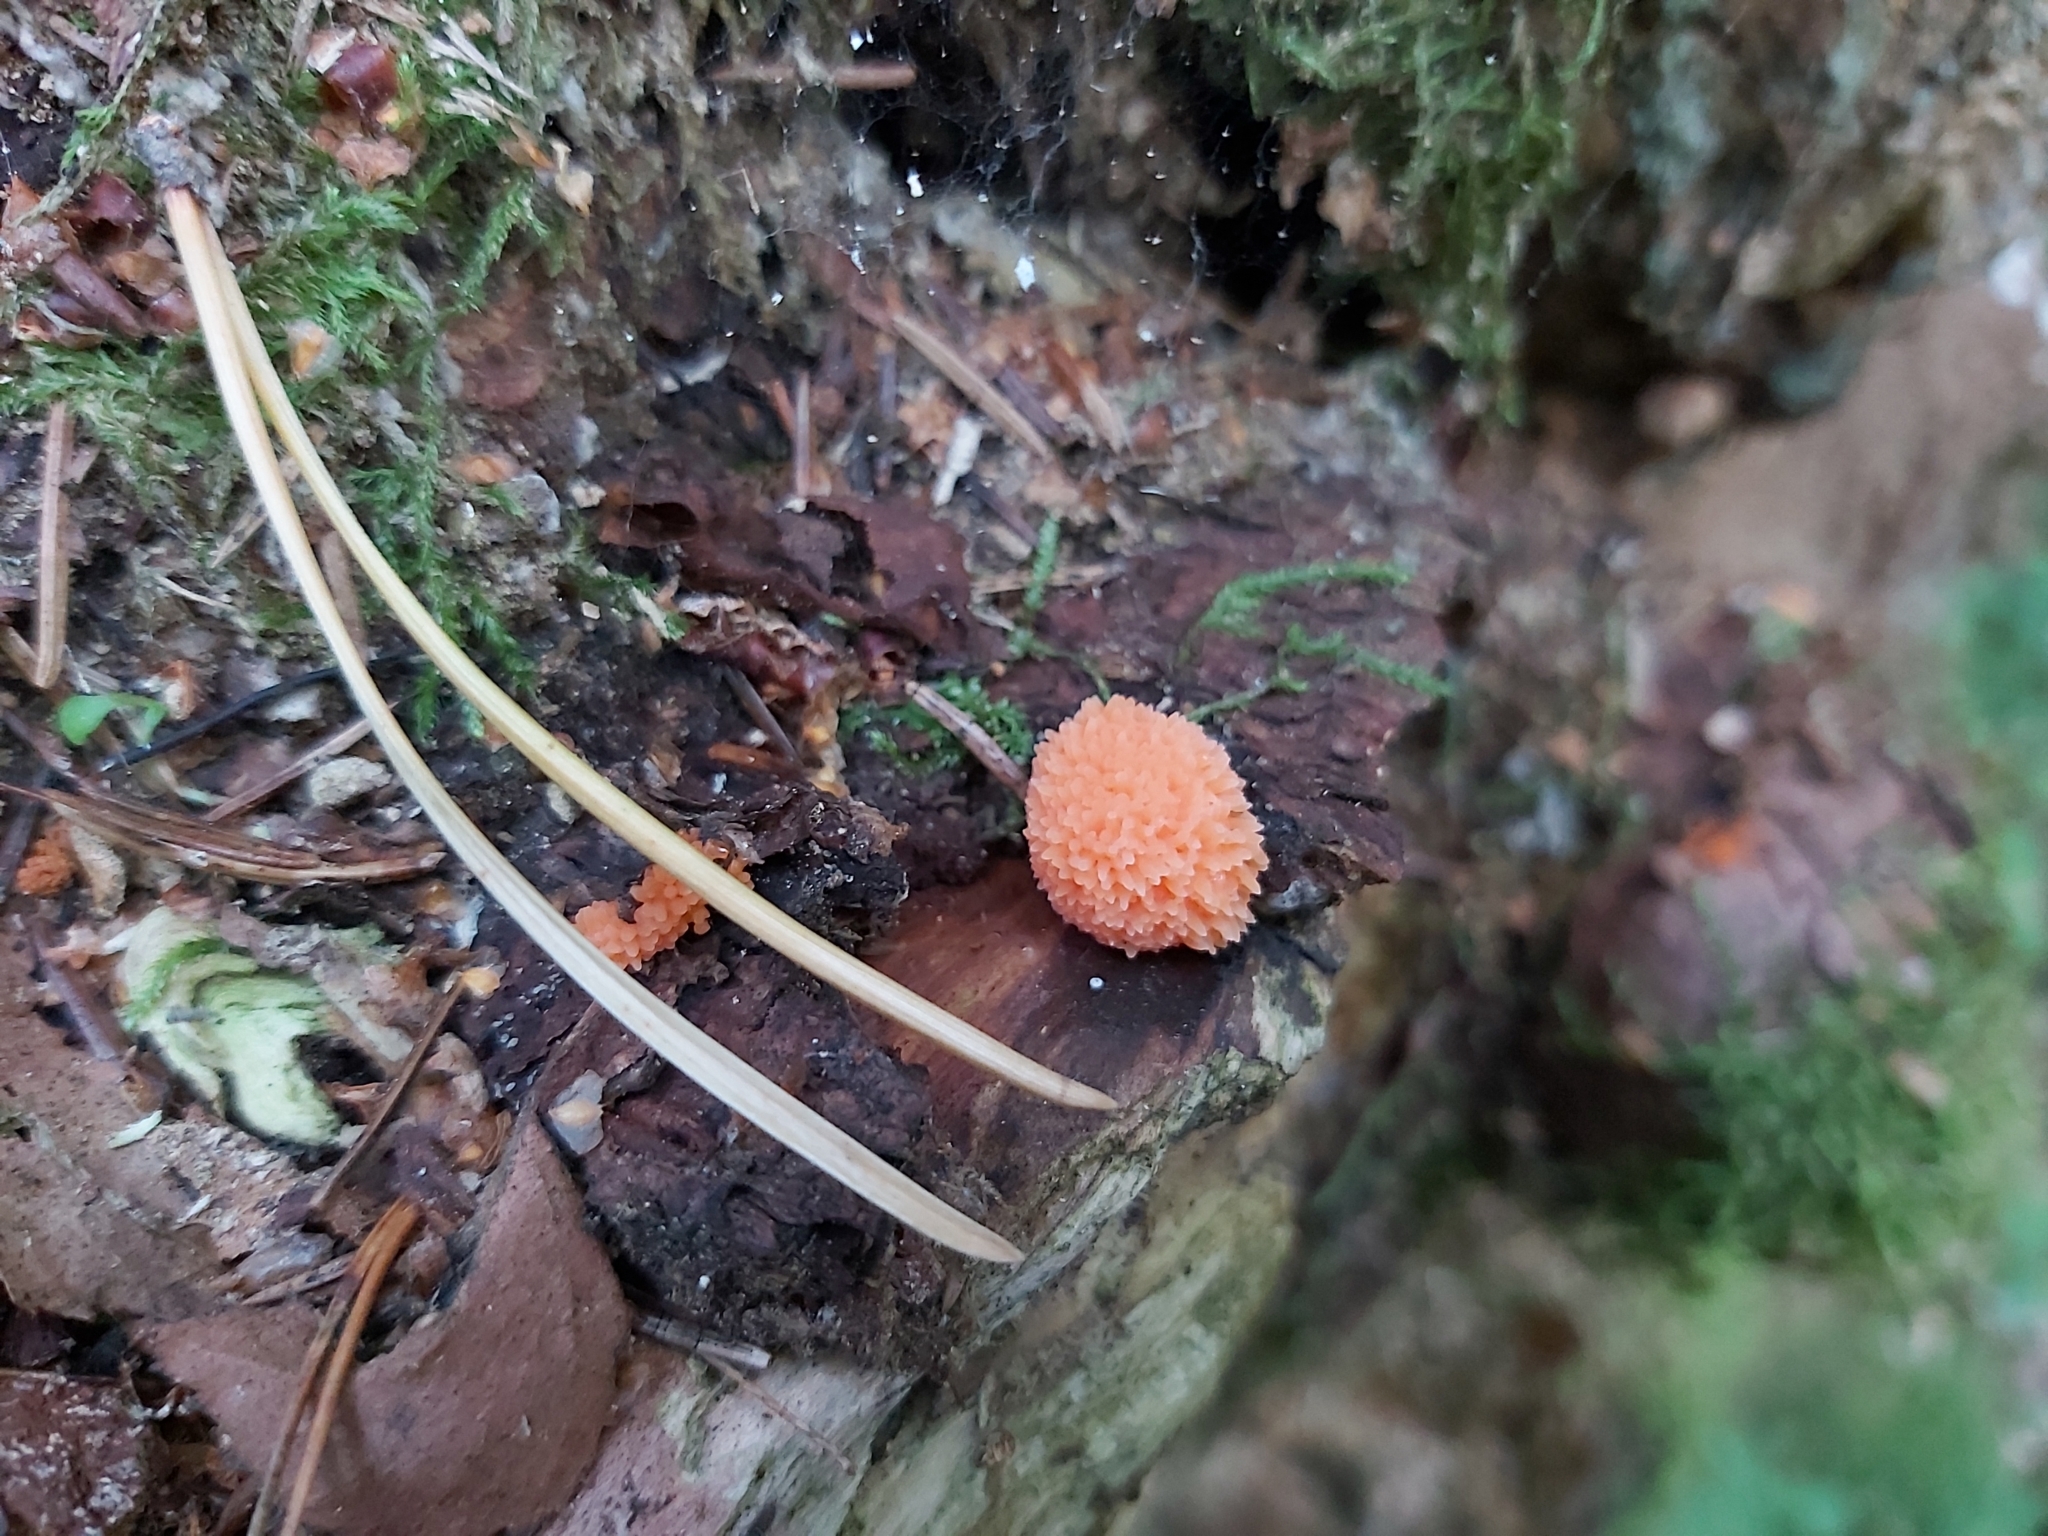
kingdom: Protozoa
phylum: Mycetozoa
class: Myxomycetes
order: Cribrariales
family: Tubiferaceae
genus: Tubifera
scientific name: Tubifera ferruginosa
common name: Red raspberry slime mold
